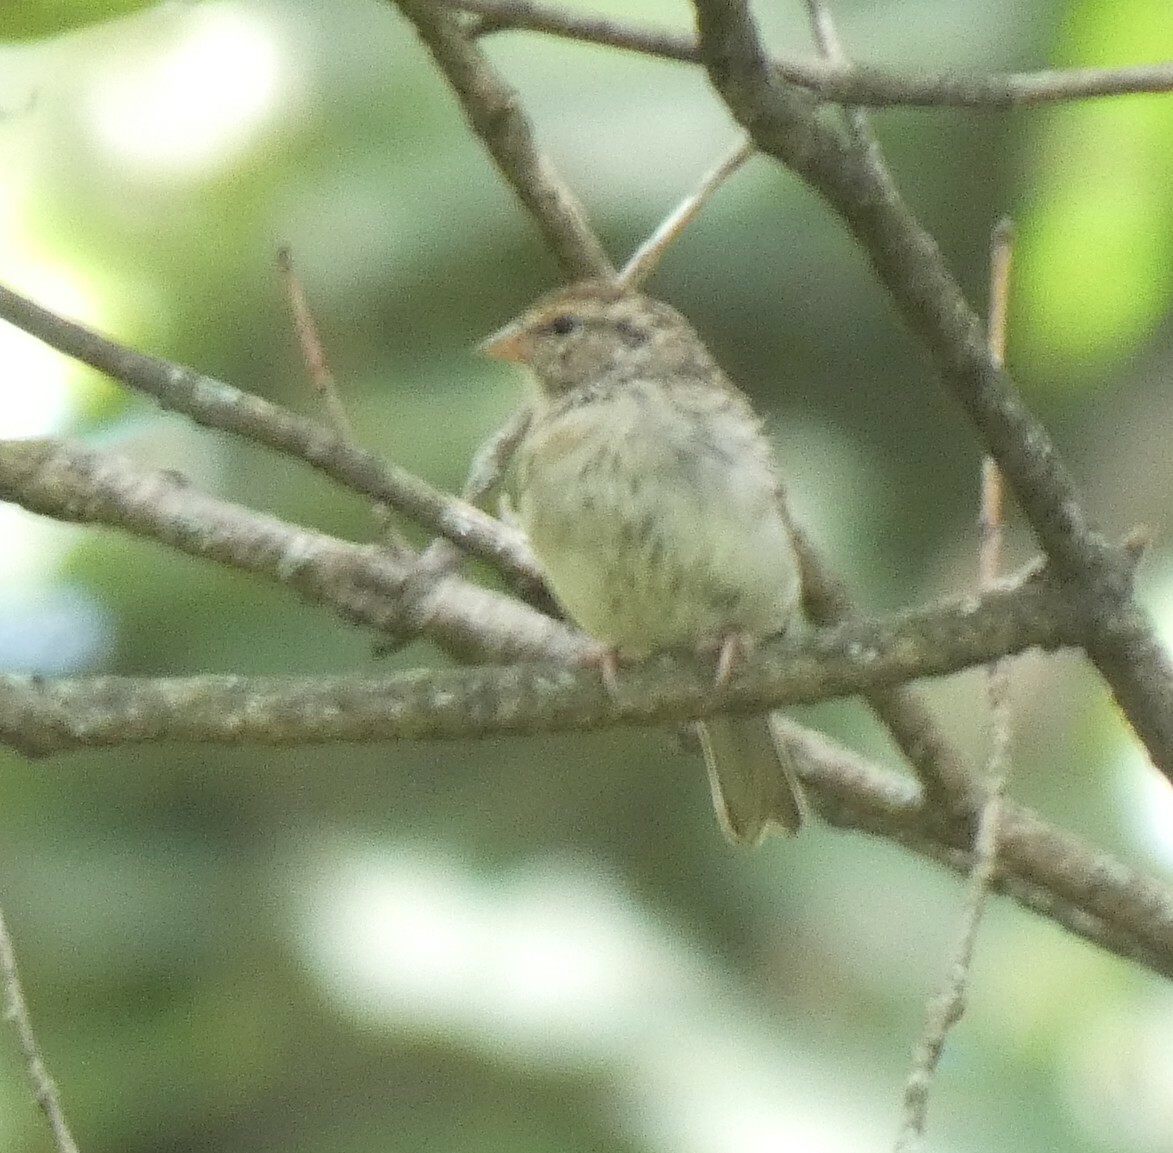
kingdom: Animalia
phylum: Chordata
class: Aves
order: Passeriformes
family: Passerellidae
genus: Spizella
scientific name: Spizella passerina
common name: Chipping sparrow
